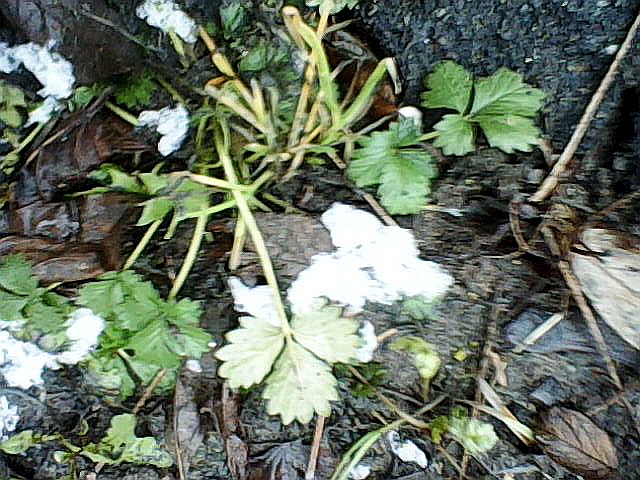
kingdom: Plantae
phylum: Tracheophyta
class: Magnoliopsida
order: Rosales
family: Rosaceae
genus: Potentilla
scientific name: Potentilla intermedia
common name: Downy cinquefoil
